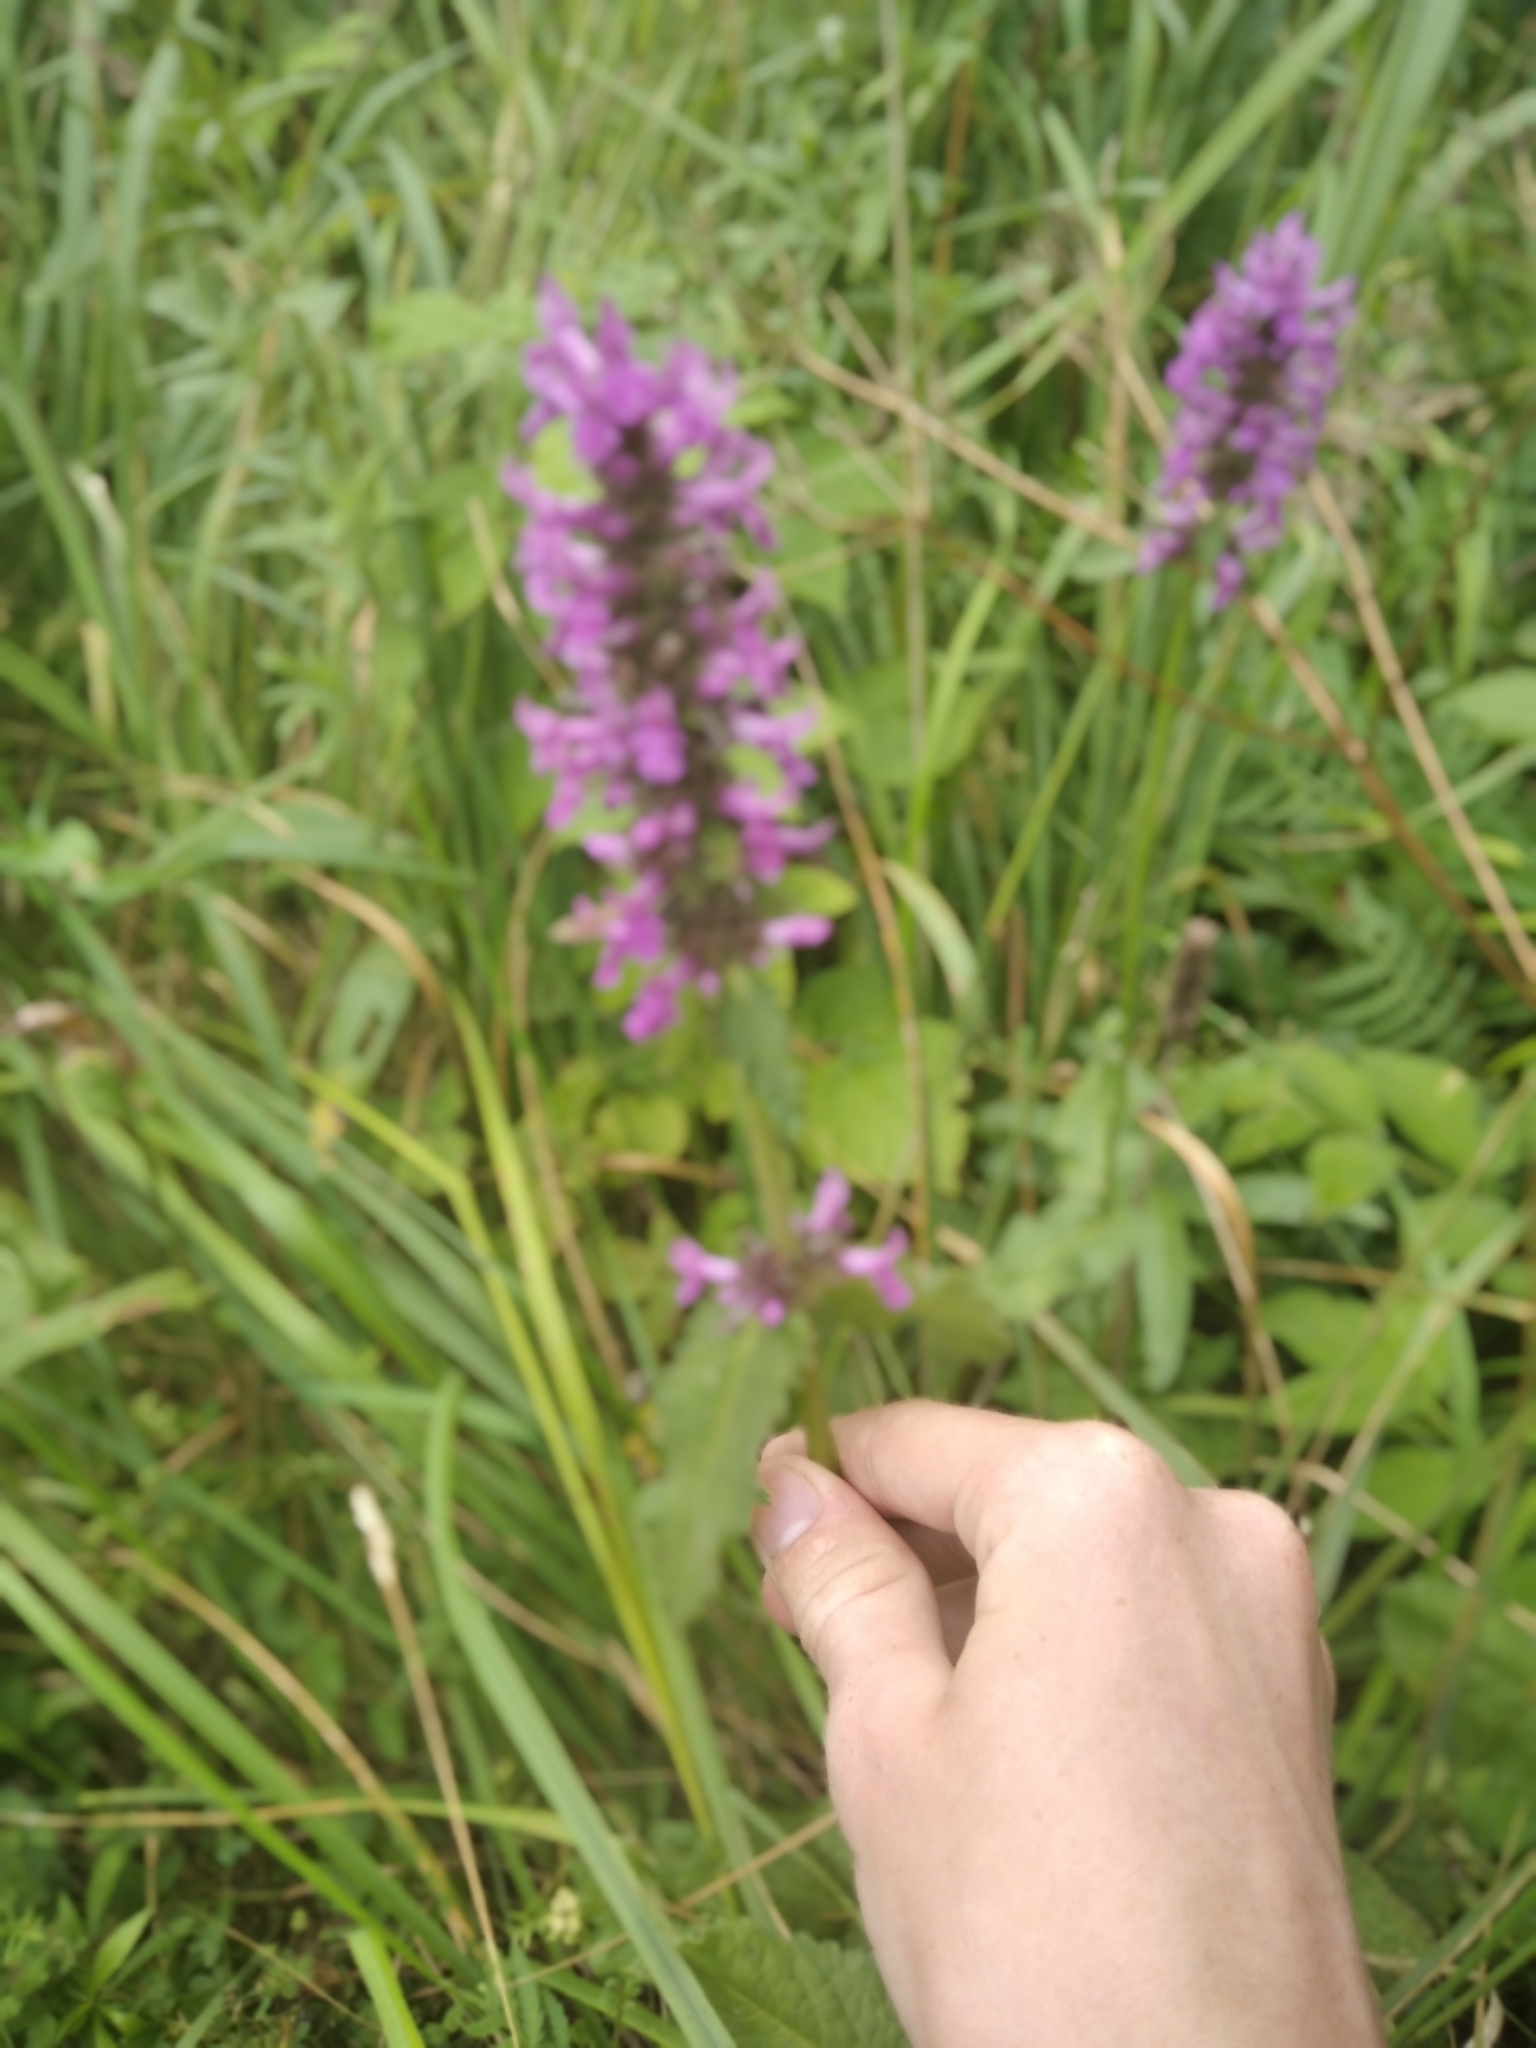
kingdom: Plantae
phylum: Tracheophyta
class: Magnoliopsida
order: Lamiales
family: Lamiaceae
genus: Betonica
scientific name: Betonica officinalis
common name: Bishop's-wort
